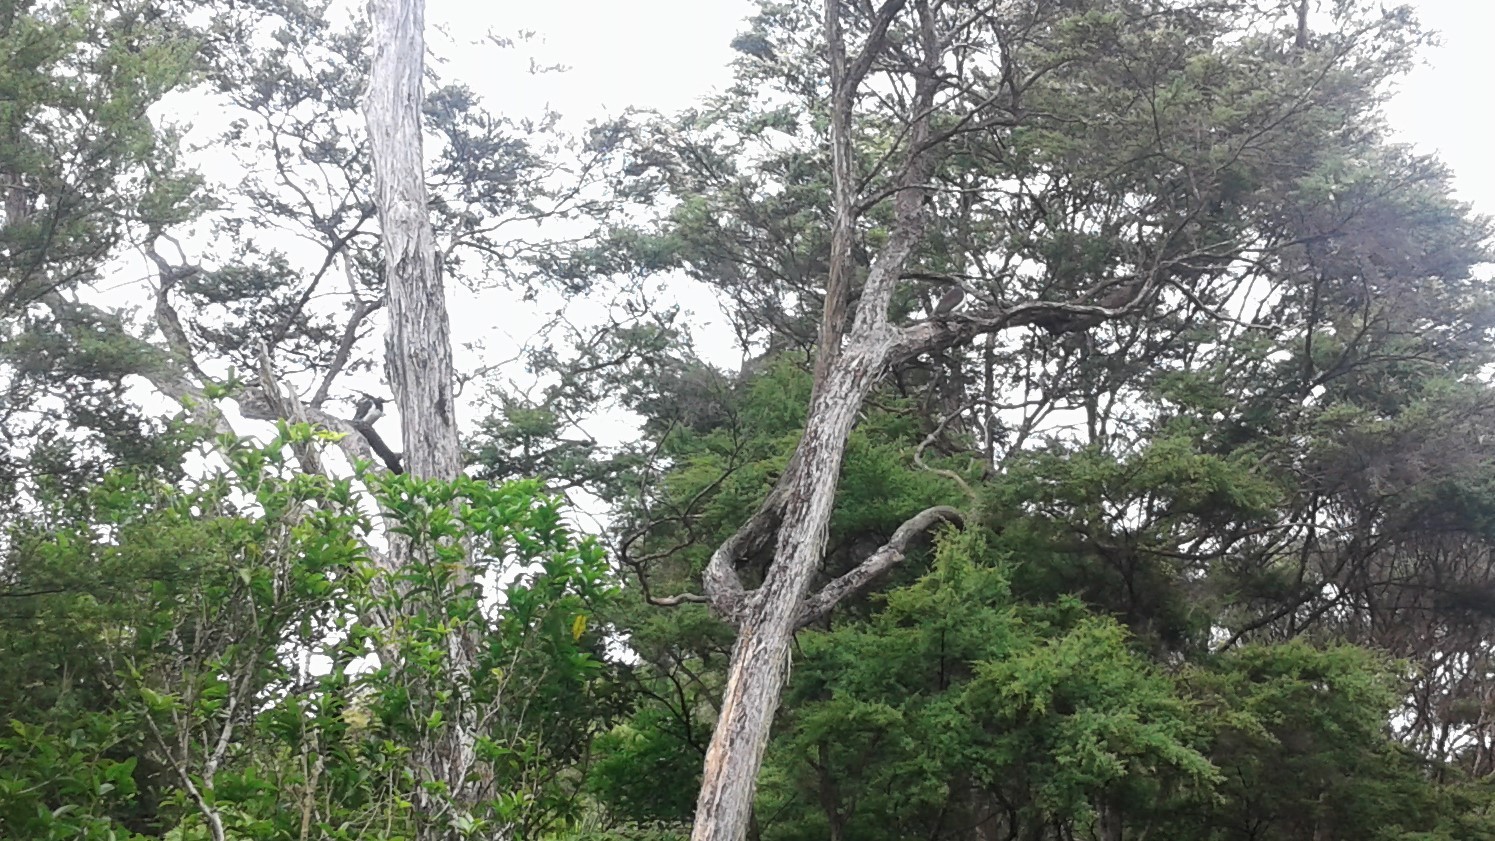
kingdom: Animalia
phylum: Chordata
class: Aves
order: Columbiformes
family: Columbidae
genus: Hemiphaga
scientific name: Hemiphaga novaeseelandiae
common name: New zealand pigeon
